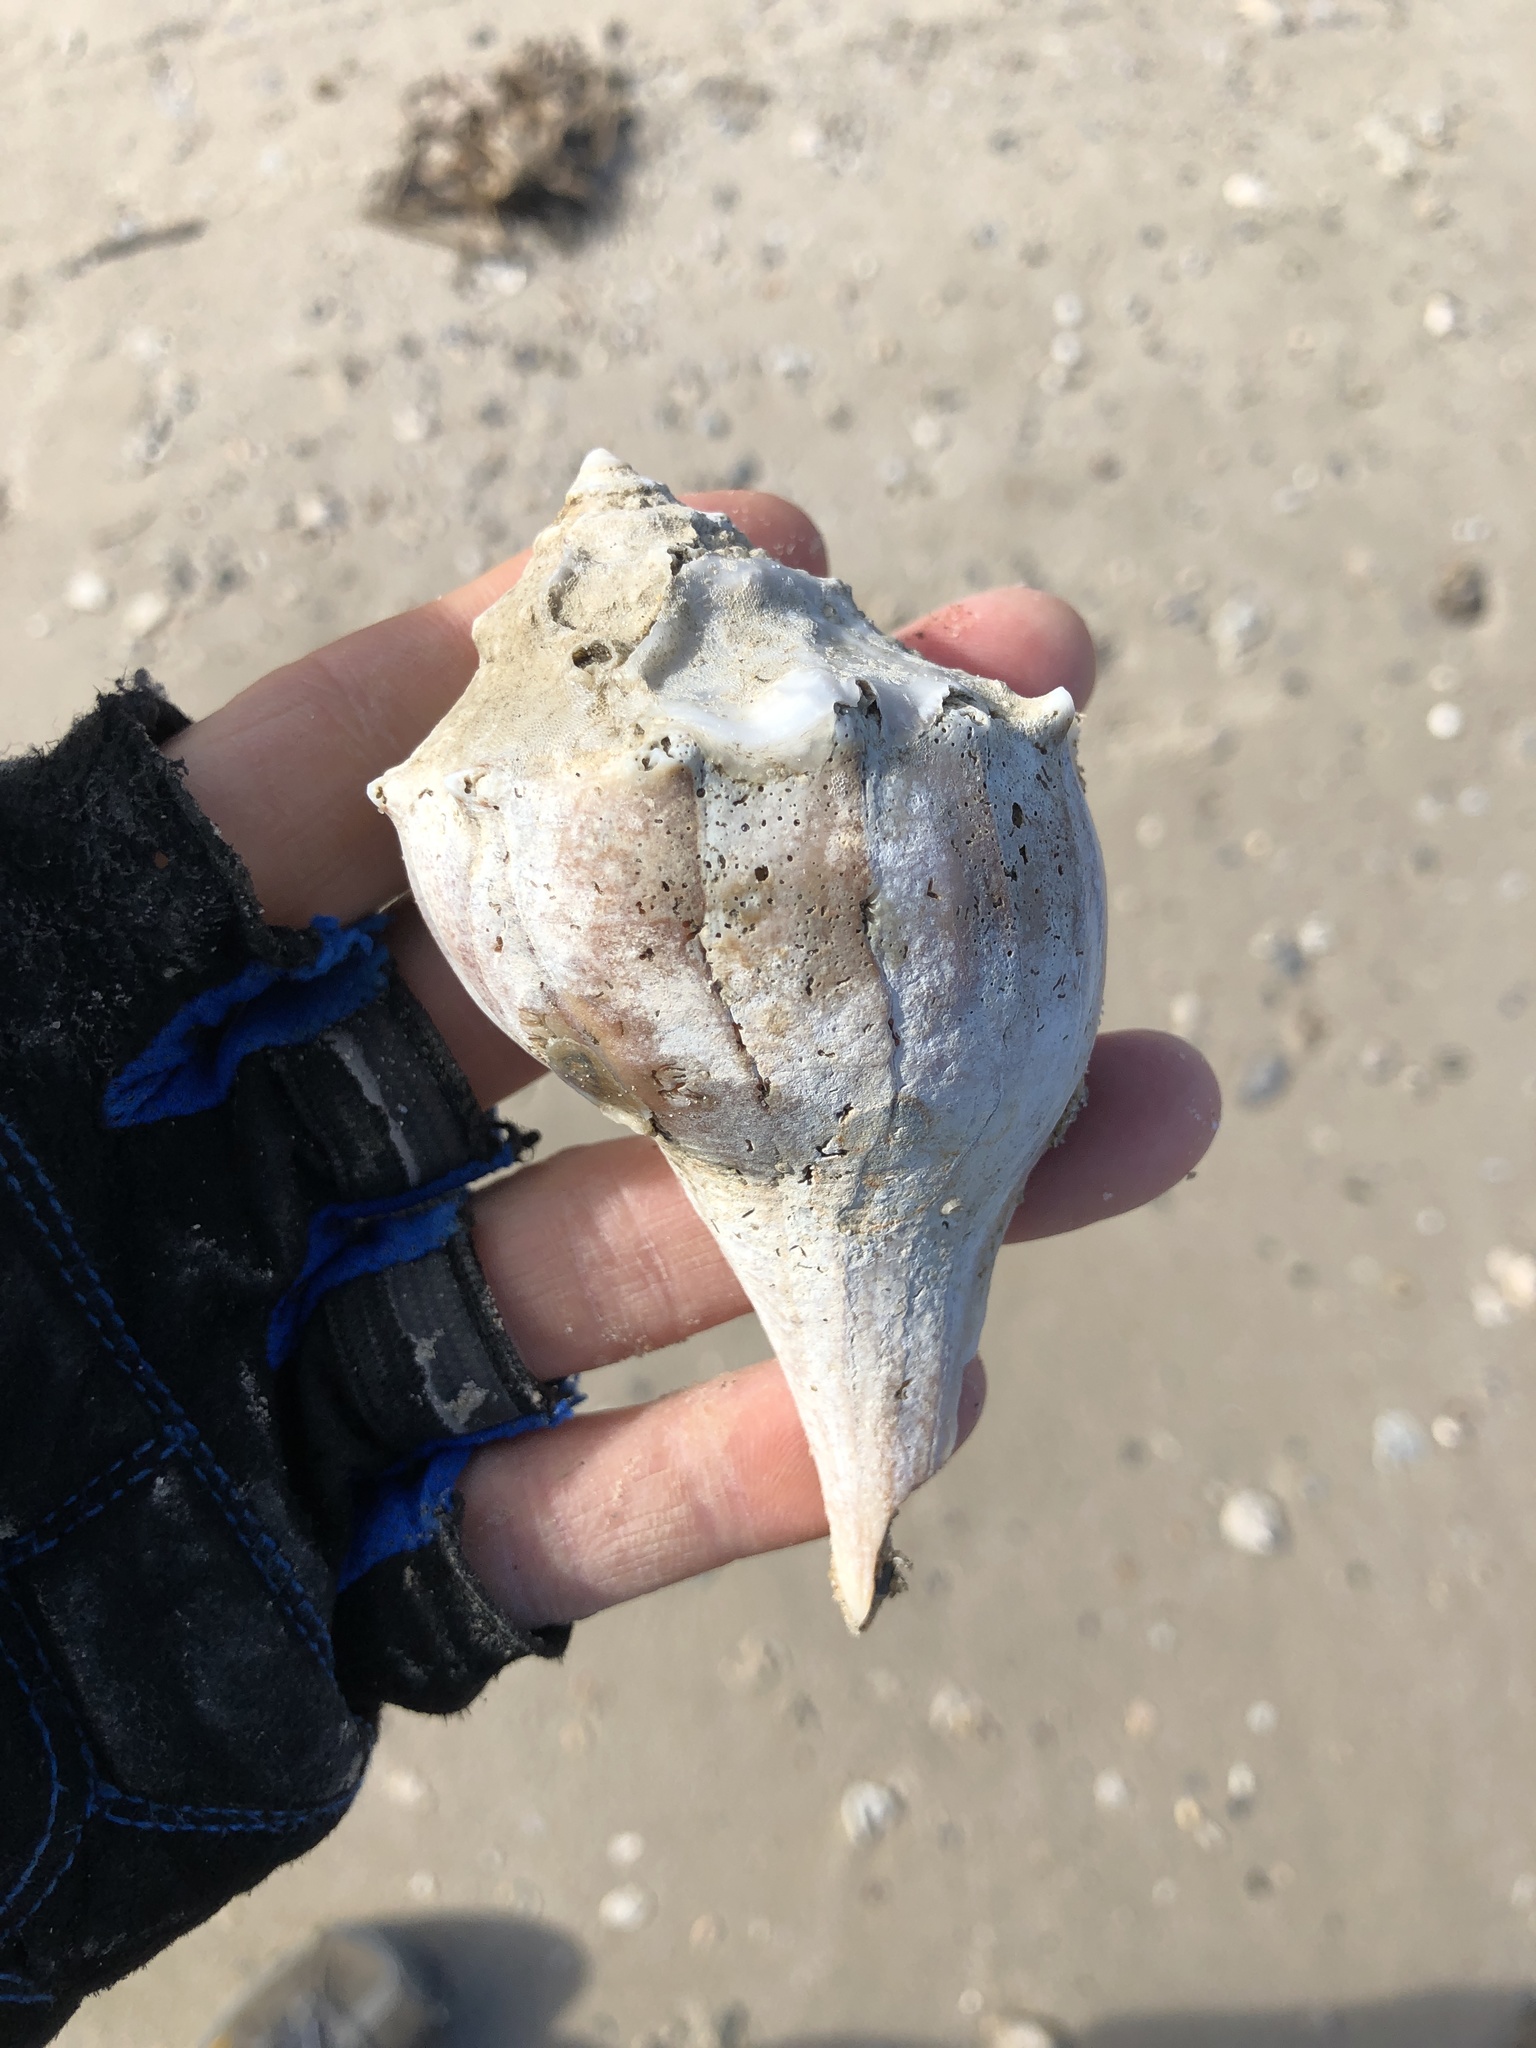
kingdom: Animalia
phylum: Mollusca
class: Gastropoda
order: Neogastropoda
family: Busyconidae
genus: Sinistrofulgur
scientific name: Sinistrofulgur pulleyi
